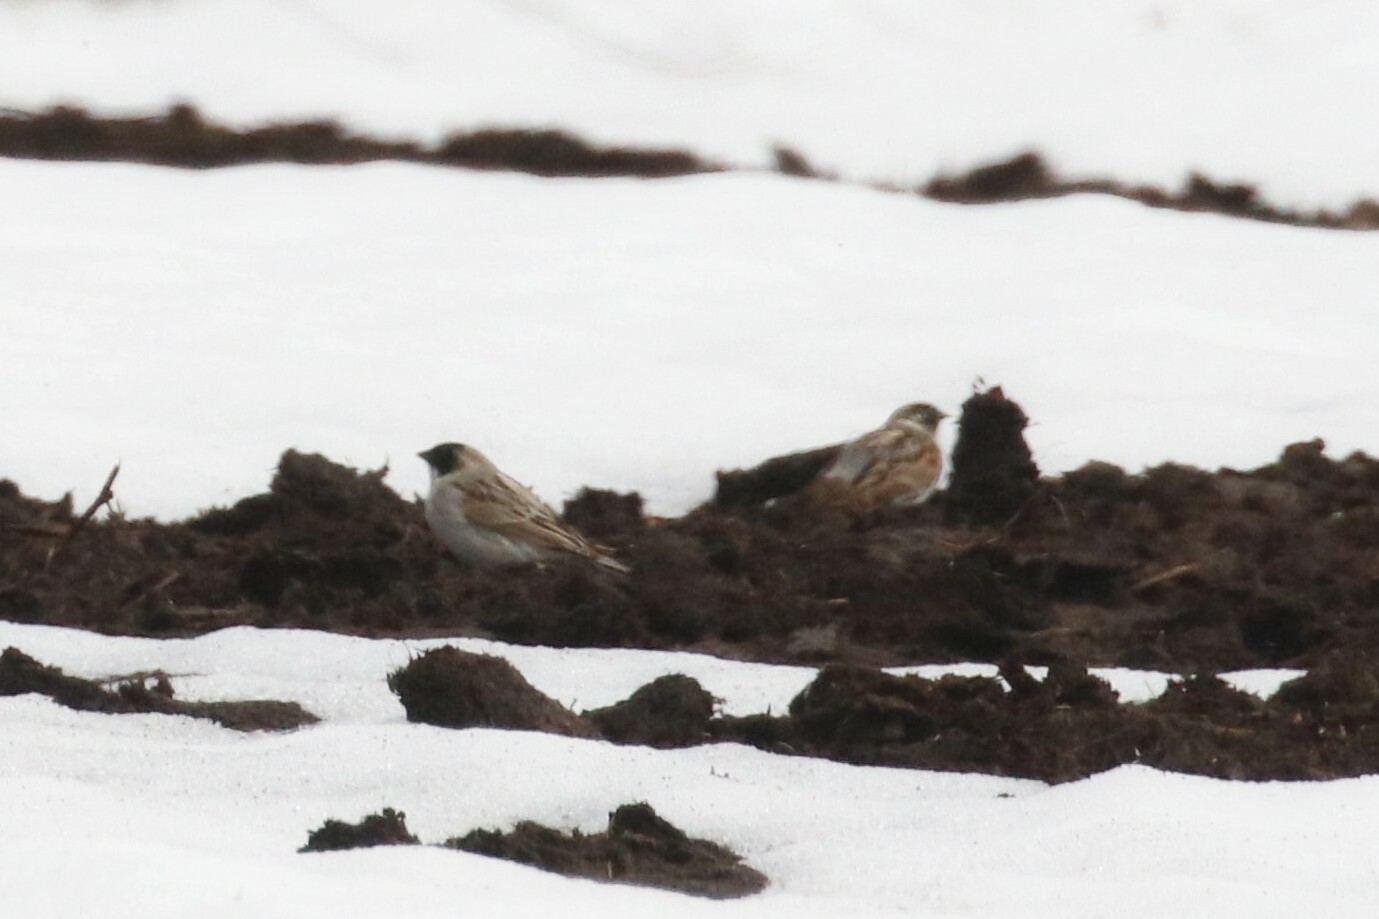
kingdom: Animalia
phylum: Chordata
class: Aves
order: Passeriformes
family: Emberizidae
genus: Emberiza
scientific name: Emberiza schoeniclus
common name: Reed bunting
